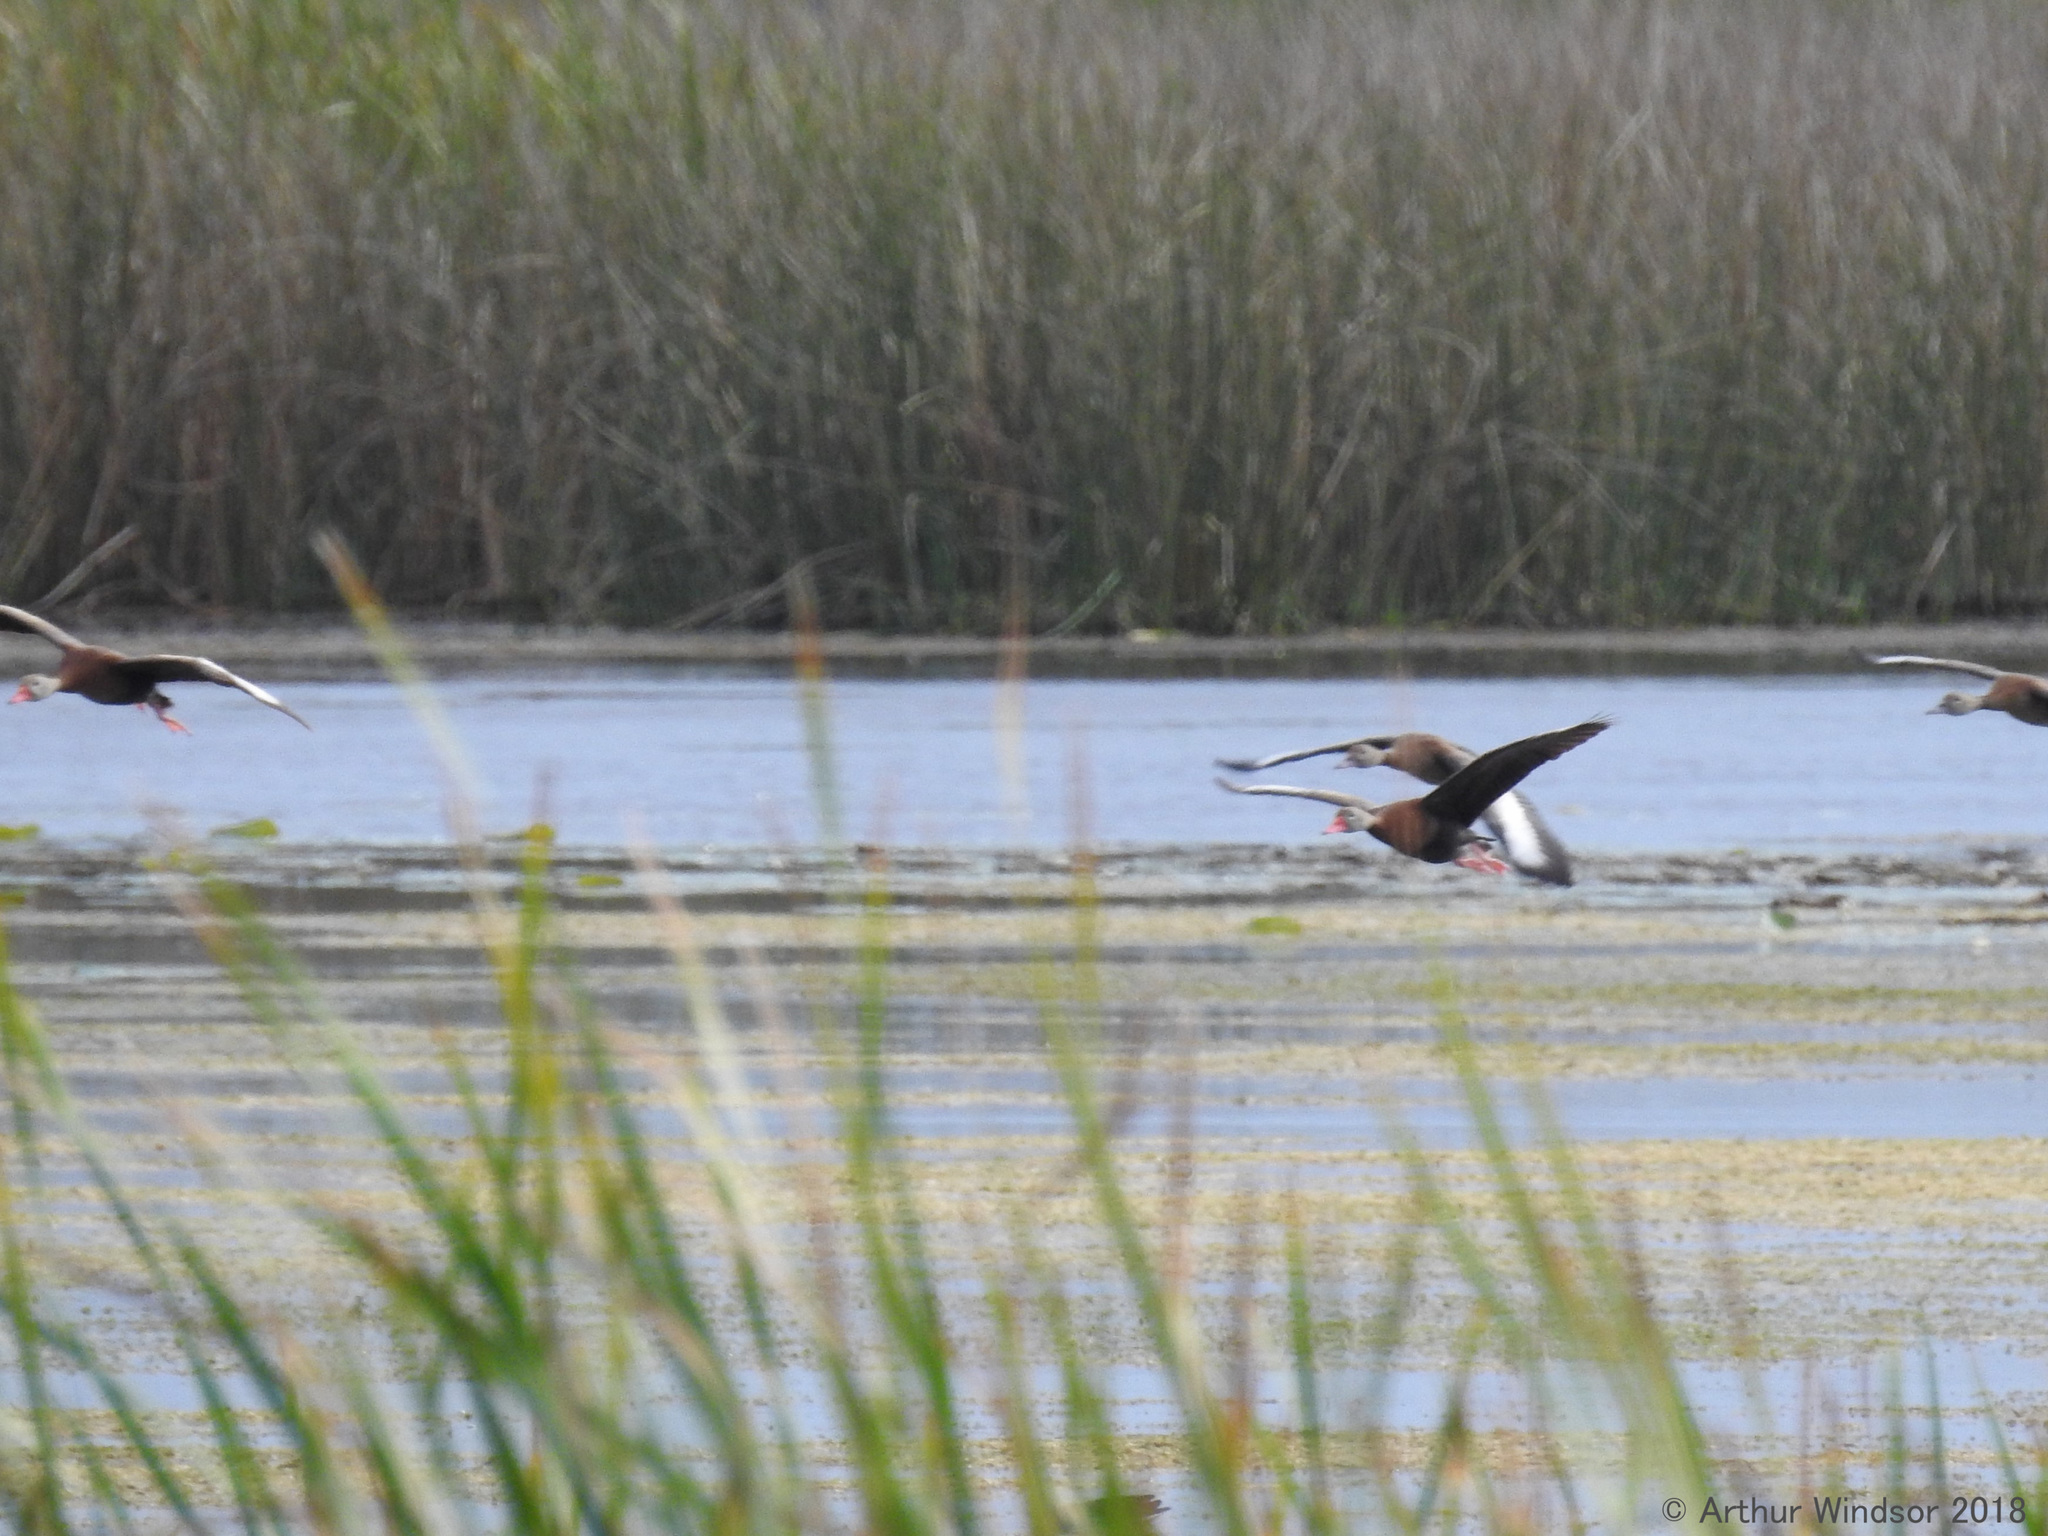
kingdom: Animalia
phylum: Chordata
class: Aves
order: Anseriformes
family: Anatidae
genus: Dendrocygna
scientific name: Dendrocygna autumnalis
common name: Black-bellied whistling duck
